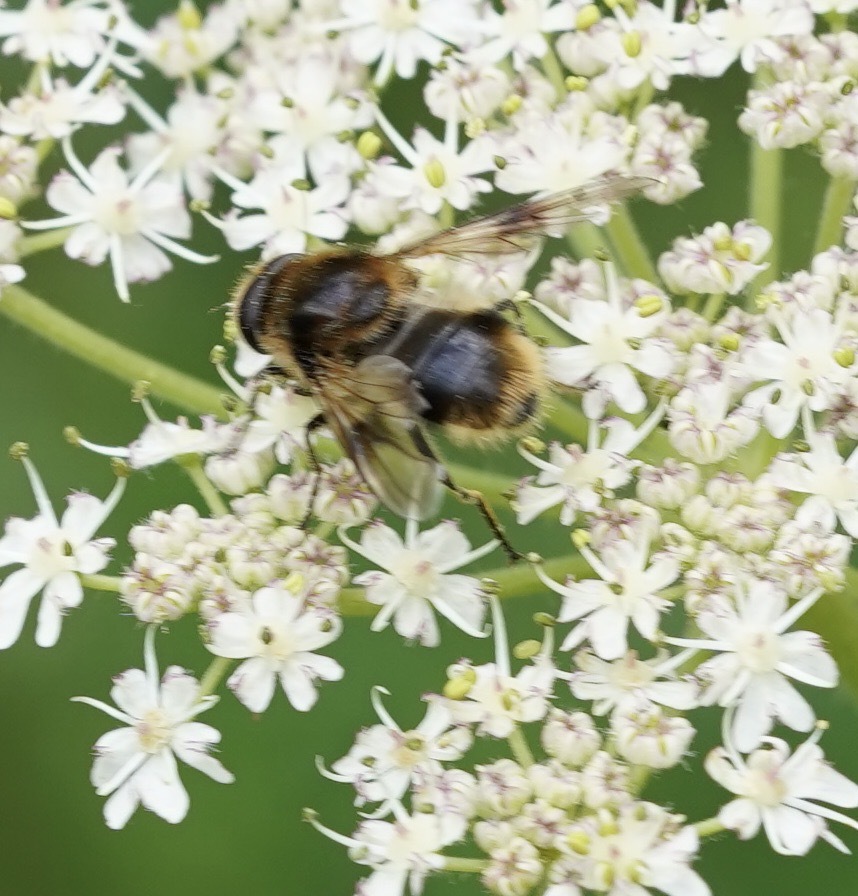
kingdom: Animalia
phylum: Arthropoda
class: Insecta
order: Diptera
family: Syrphidae
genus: Cheilosia
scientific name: Cheilosia illustrata
